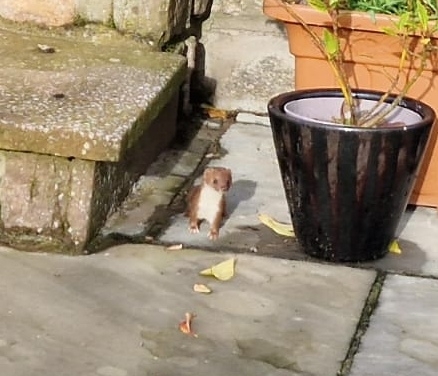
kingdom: Animalia
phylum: Chordata
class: Mammalia
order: Carnivora
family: Mustelidae
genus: Mustela
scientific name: Mustela nivalis
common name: Least weasel
